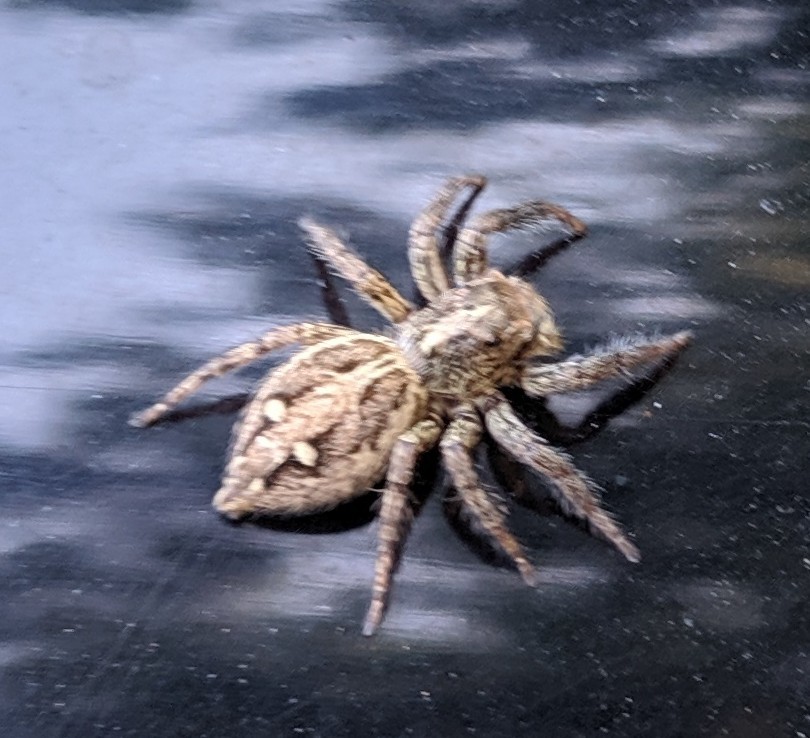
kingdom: Animalia
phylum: Arthropoda
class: Arachnida
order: Araneae
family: Salticidae
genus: Plexippus
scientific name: Plexippus paykulli
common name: Pantropical jumper
